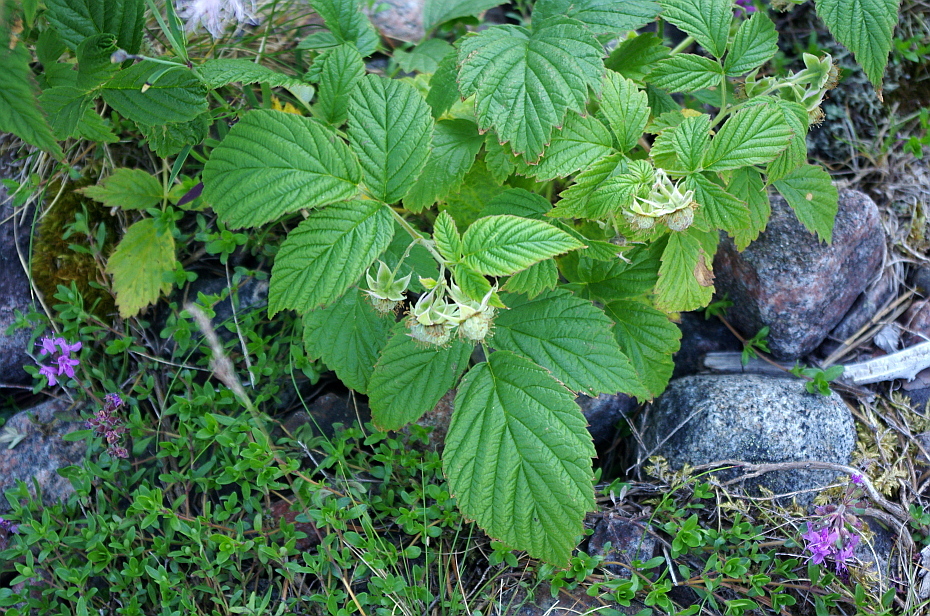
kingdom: Plantae
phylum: Tracheophyta
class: Magnoliopsida
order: Rosales
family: Rosaceae
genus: Rubus
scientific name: Rubus idaeus
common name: Raspberry
